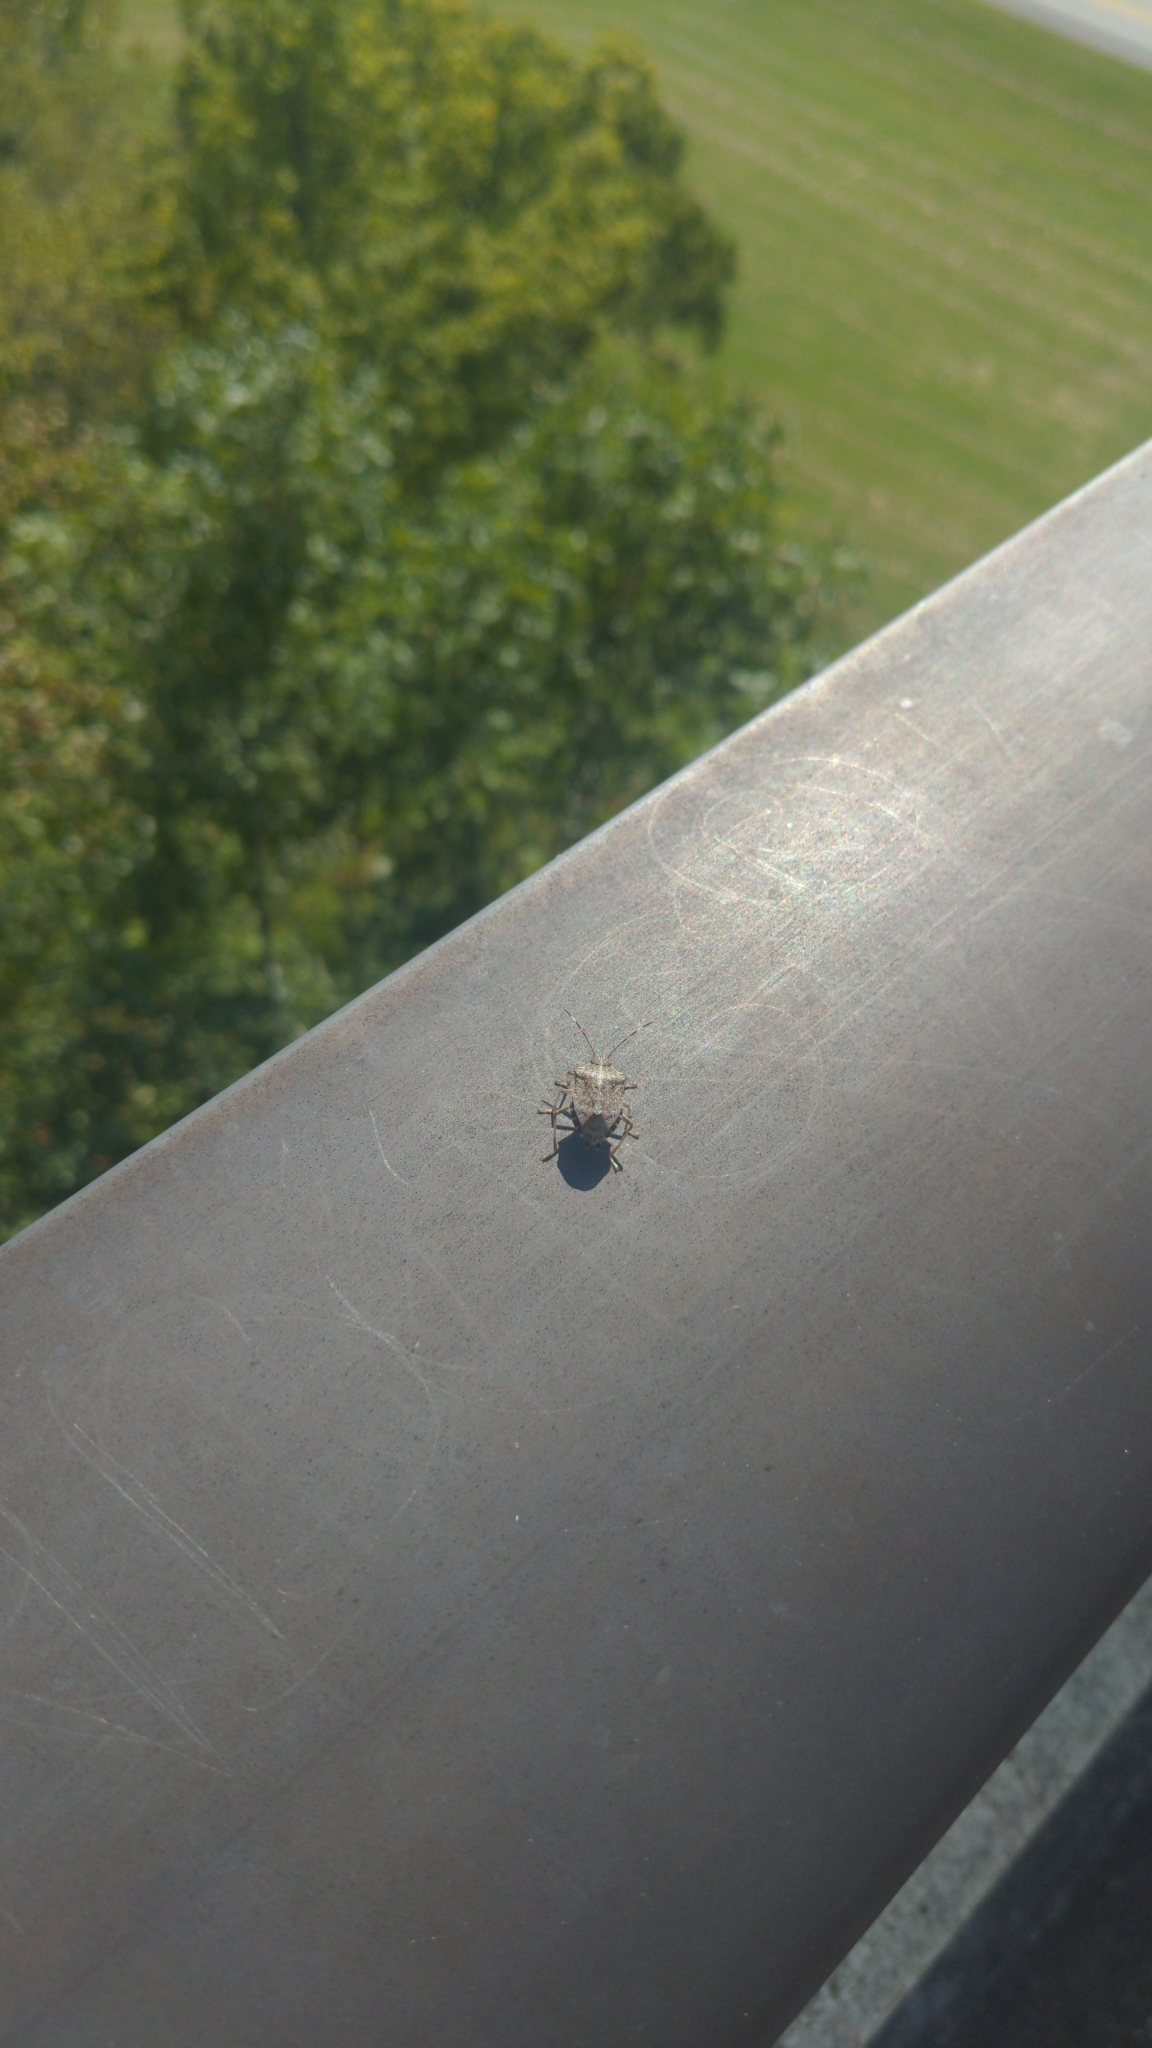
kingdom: Animalia
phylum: Arthropoda
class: Insecta
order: Hemiptera
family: Pentatomidae
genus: Halyomorpha
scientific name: Halyomorpha halys
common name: Brown marmorated stink bug
